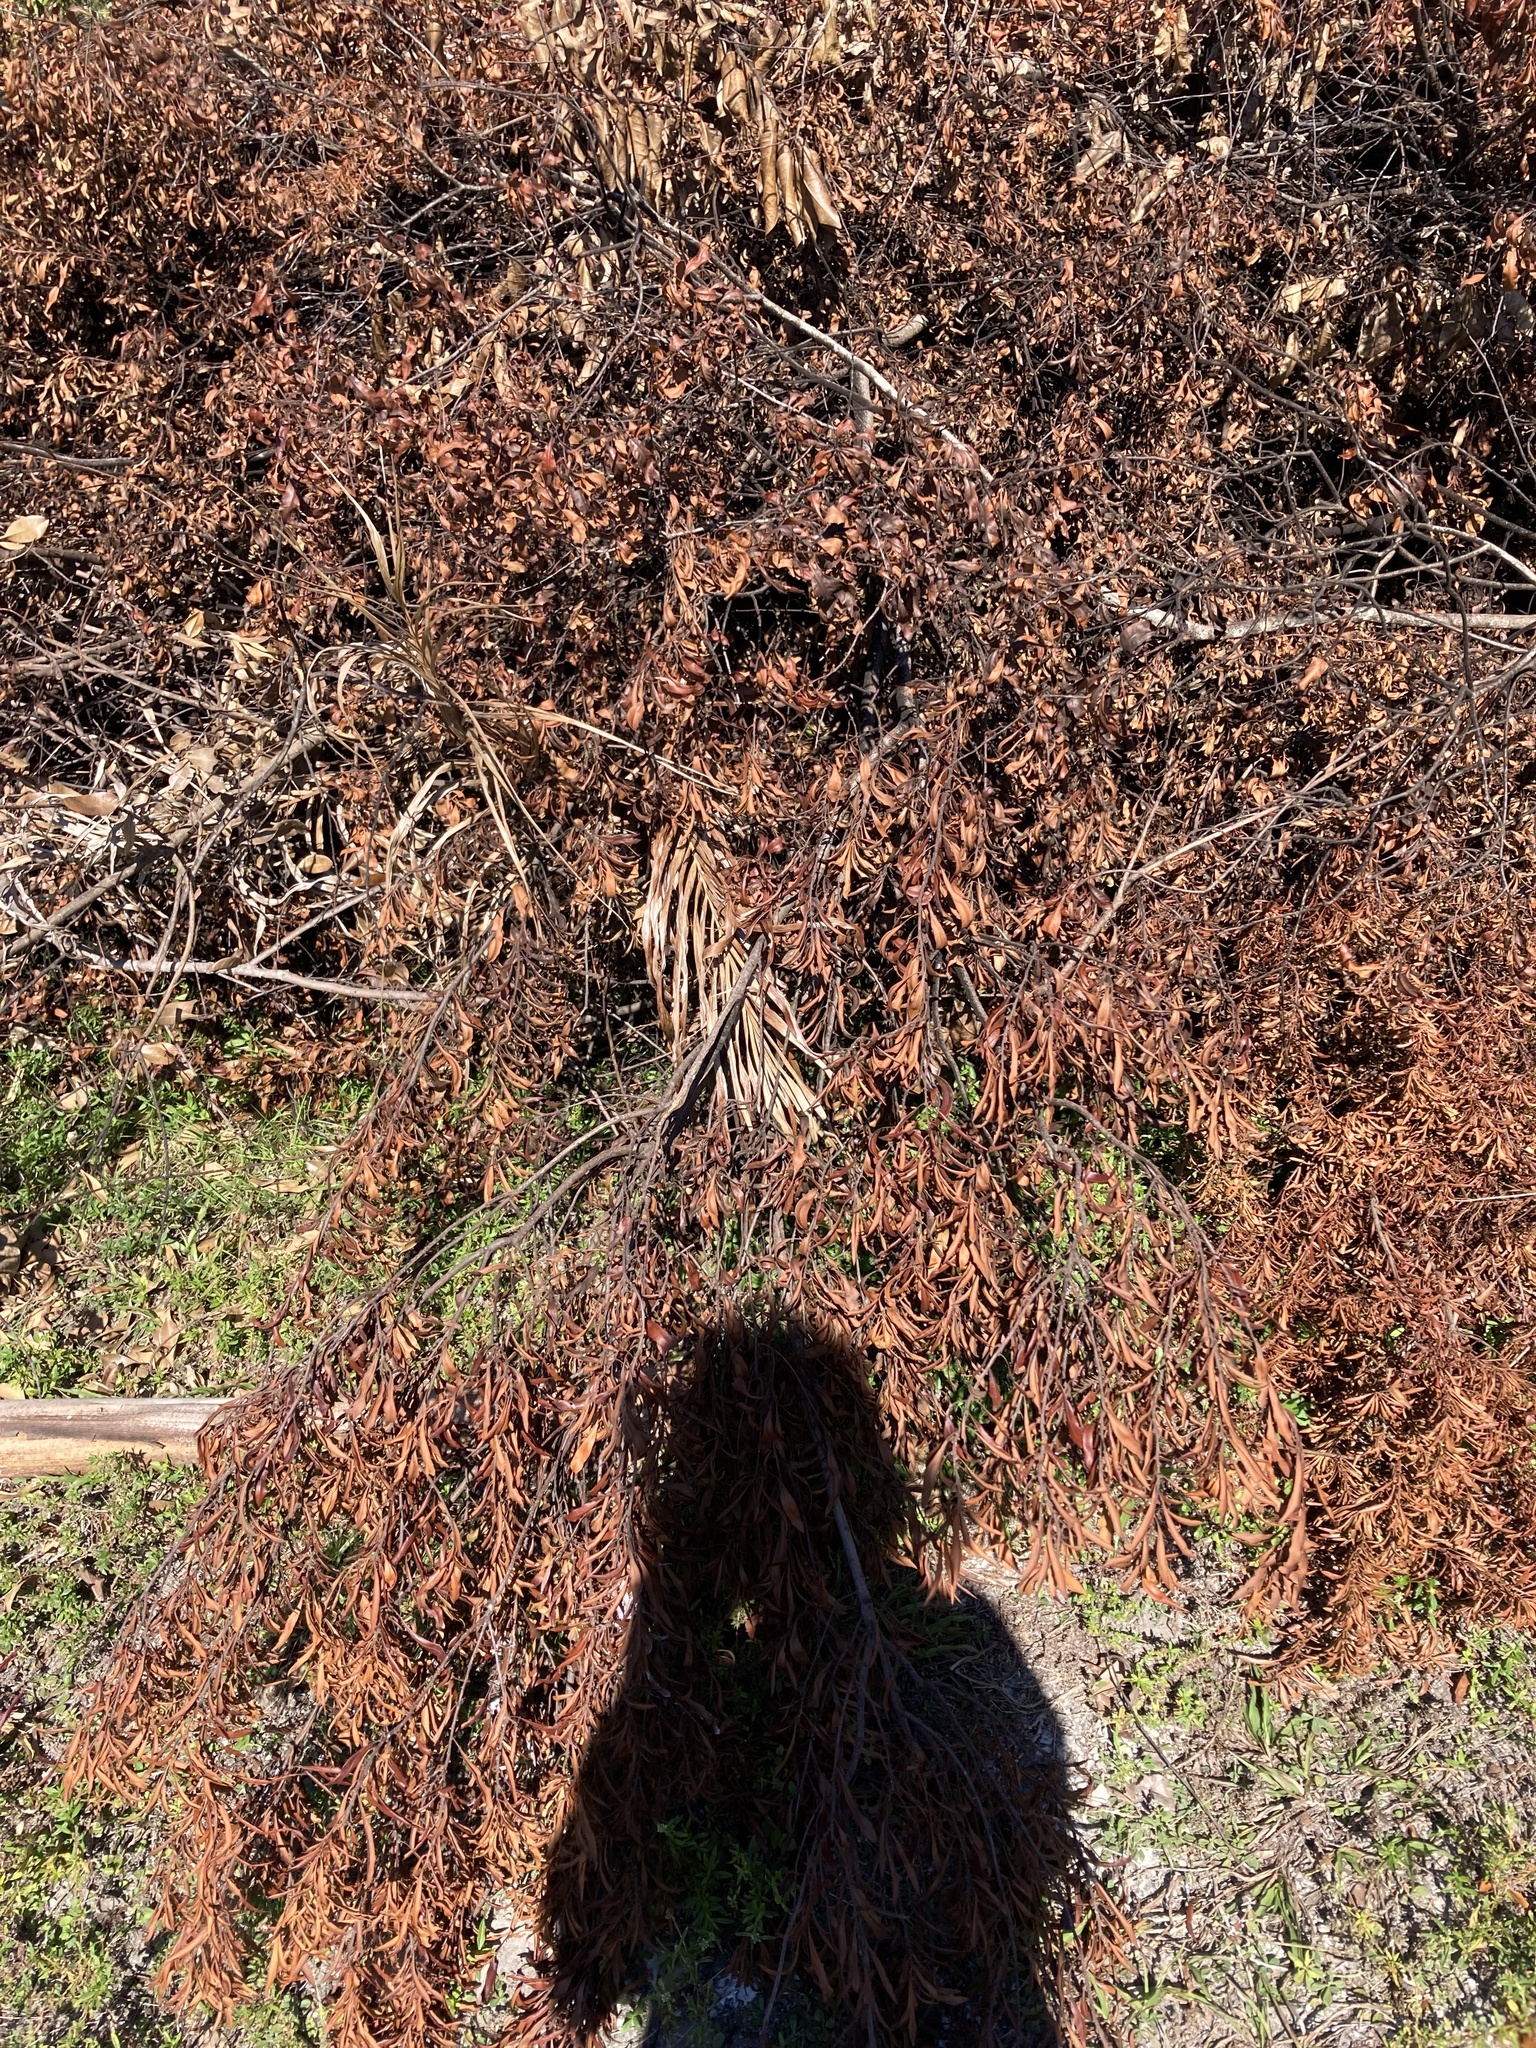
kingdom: Plantae
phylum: Tracheophyta
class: Magnoliopsida
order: Fagales
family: Myricaceae
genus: Morella
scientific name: Morella cerifera
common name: Wax myrtle
